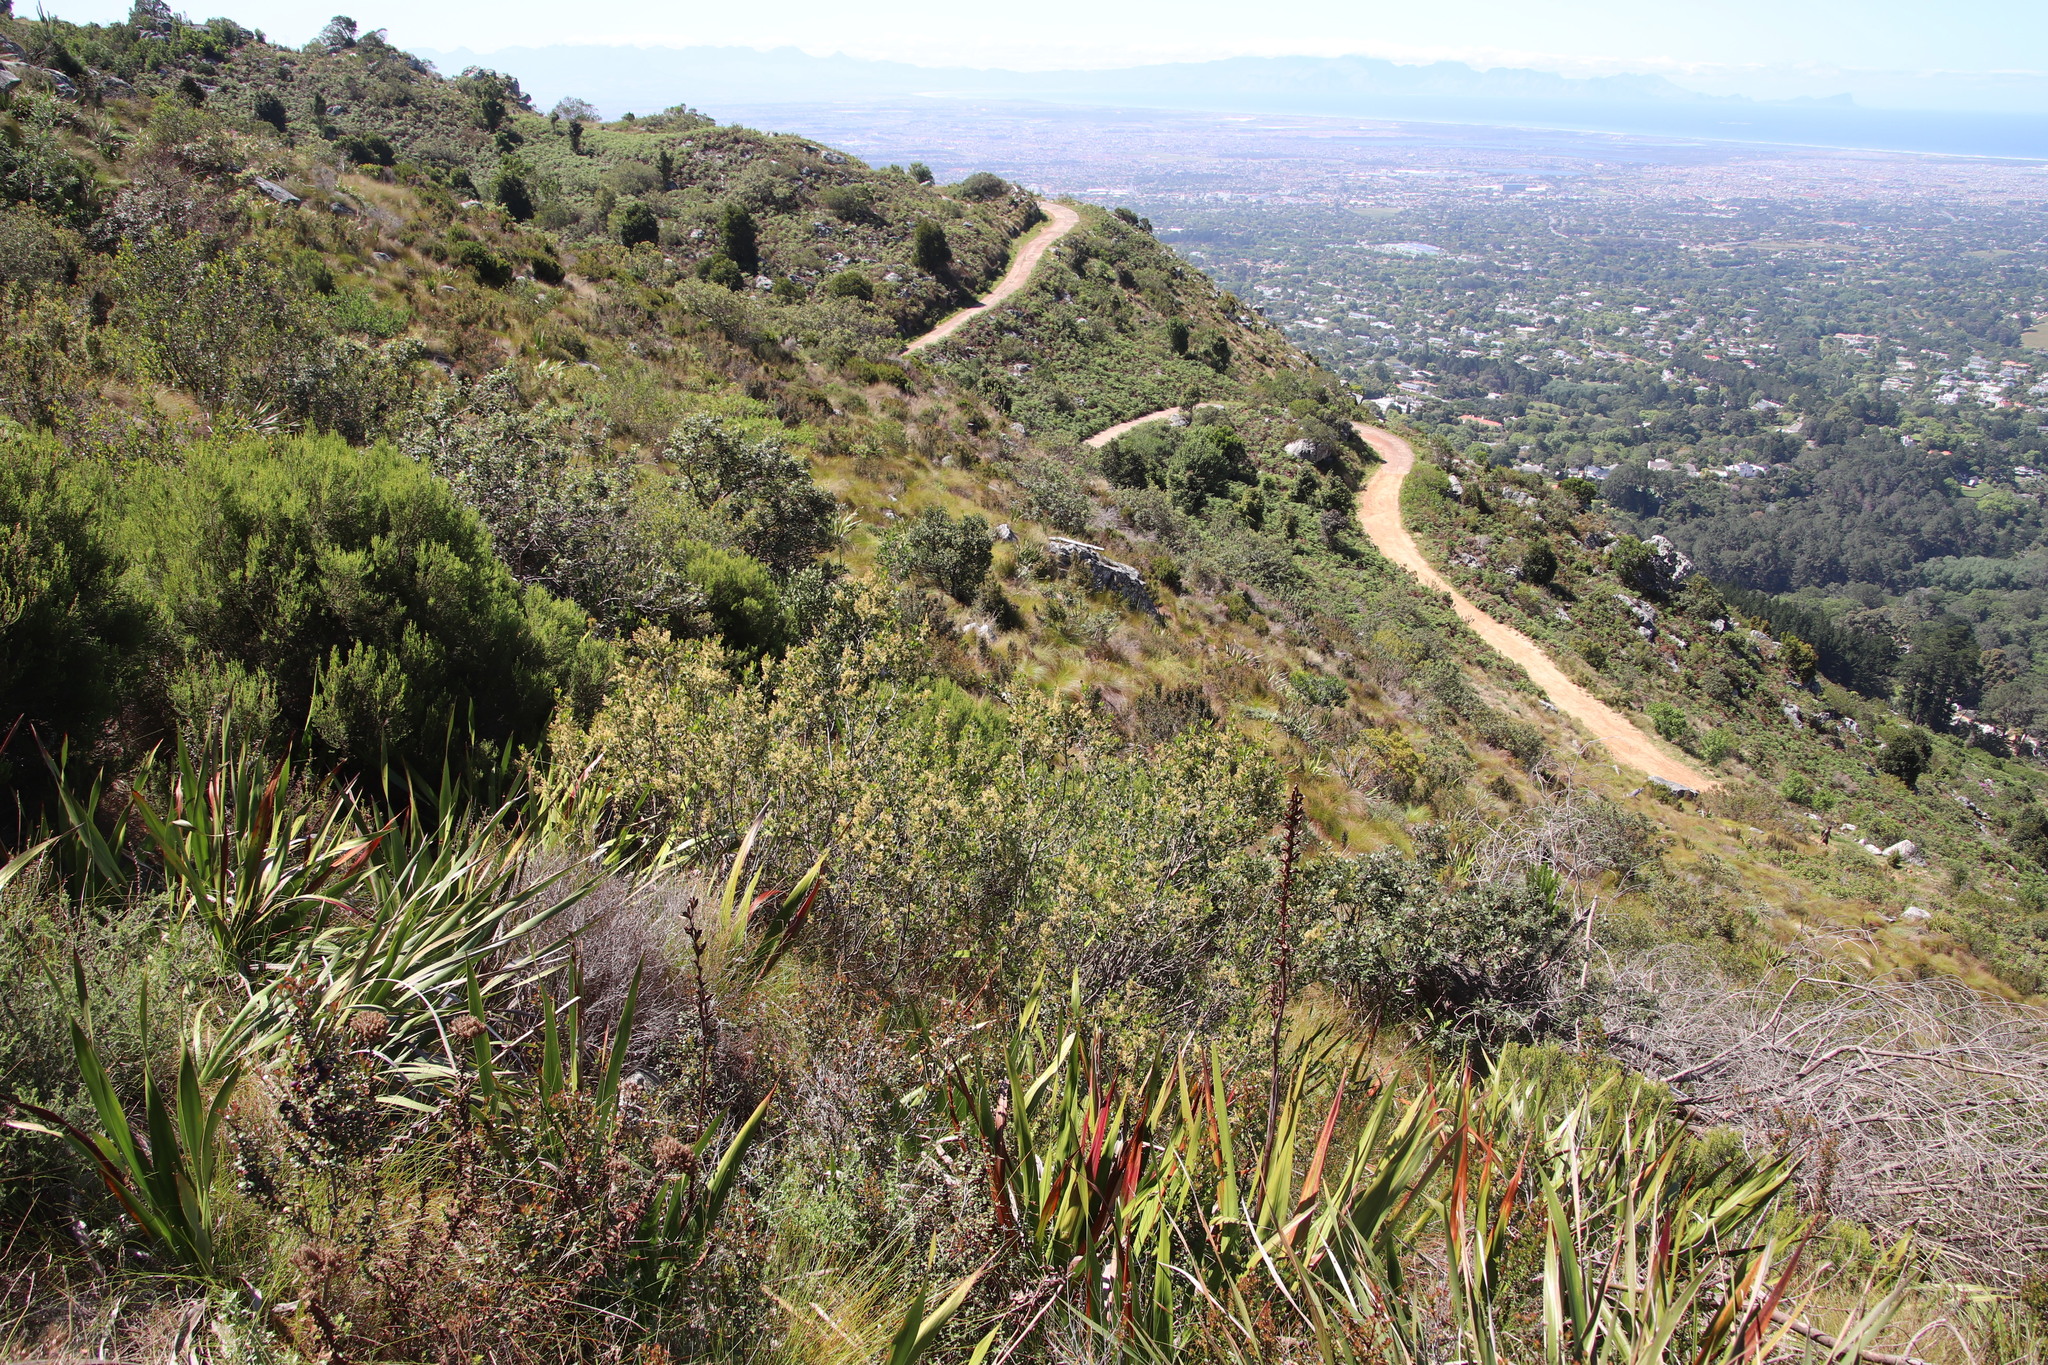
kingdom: Plantae
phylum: Tracheophyta
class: Magnoliopsida
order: Sapindales
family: Anacardiaceae
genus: Searsia
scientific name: Searsia lucida
